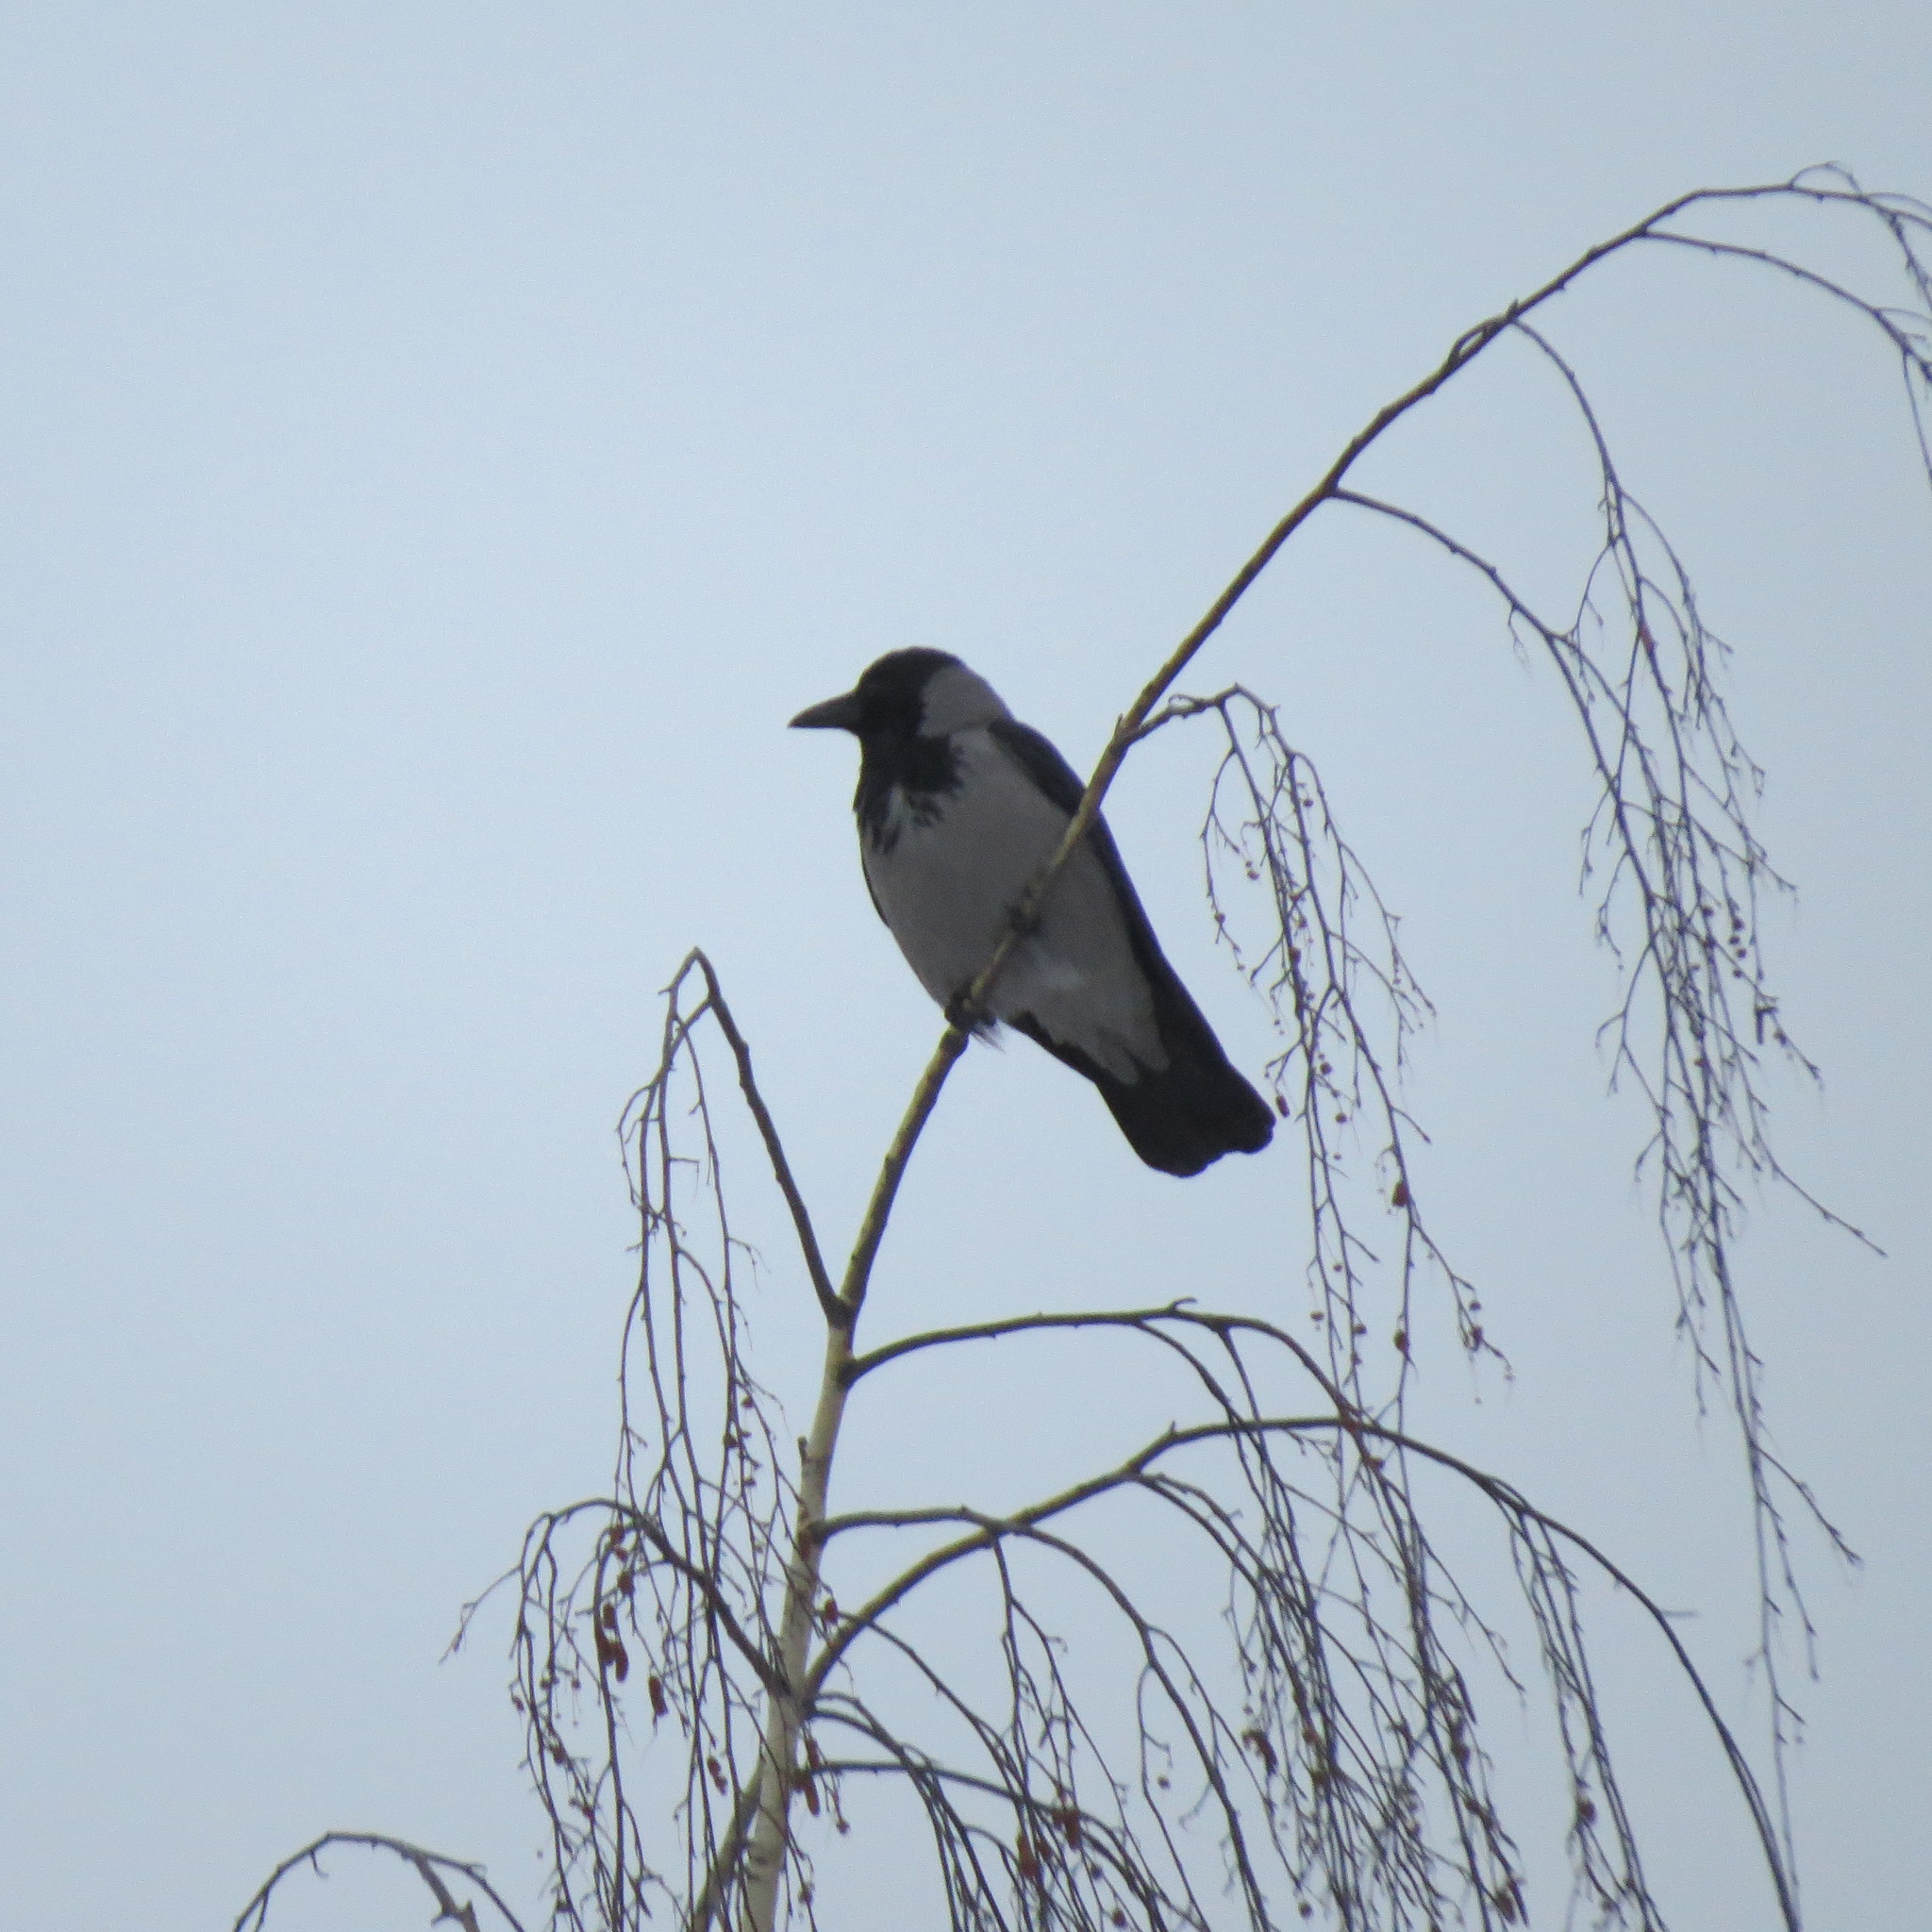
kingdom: Animalia
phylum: Chordata
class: Aves
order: Passeriformes
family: Corvidae
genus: Corvus
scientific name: Corvus cornix
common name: Hooded crow
